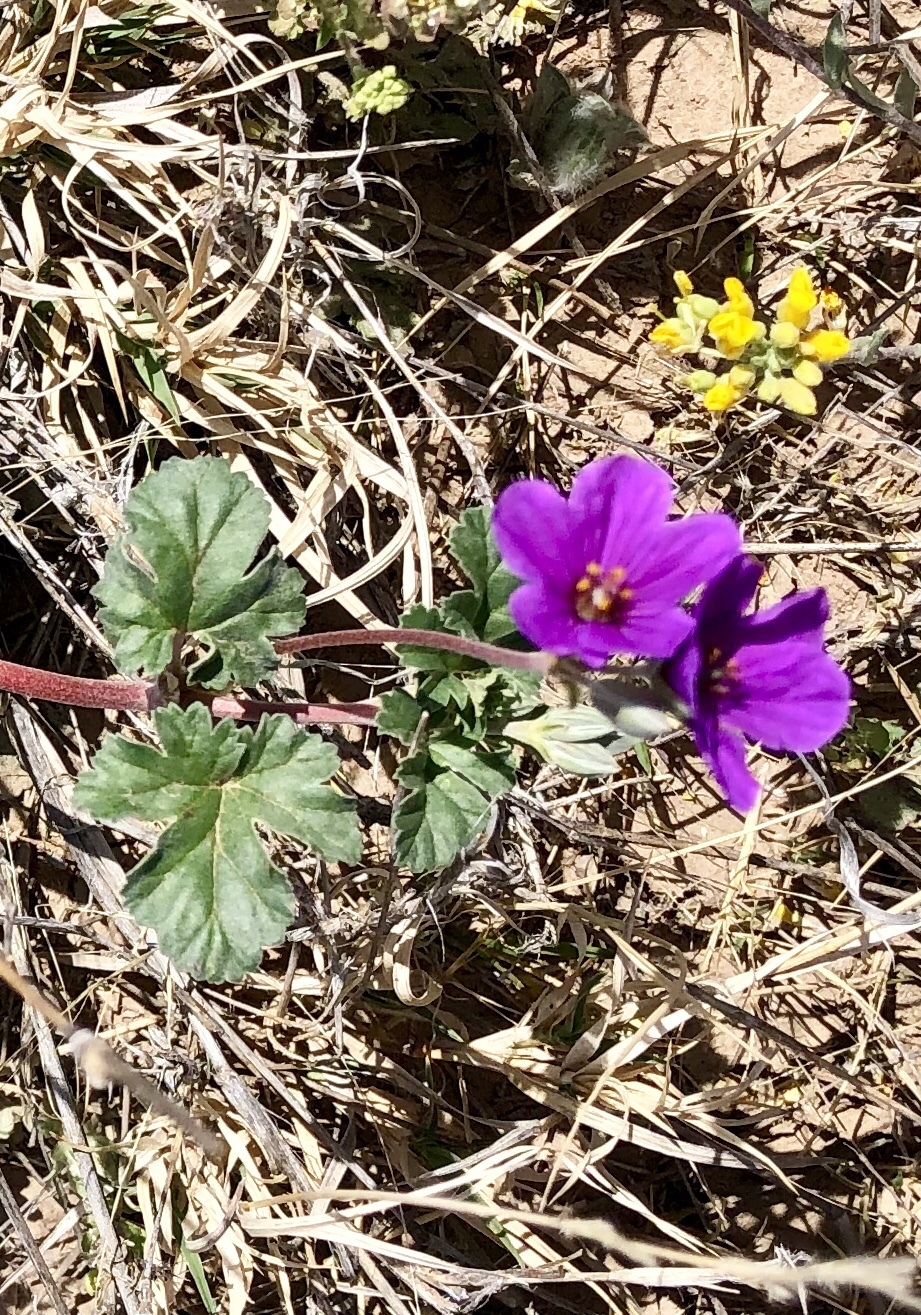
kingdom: Plantae
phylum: Tracheophyta
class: Magnoliopsida
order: Geraniales
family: Geraniaceae
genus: Erodium
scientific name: Erodium texanum
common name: Texas stork's-bill
